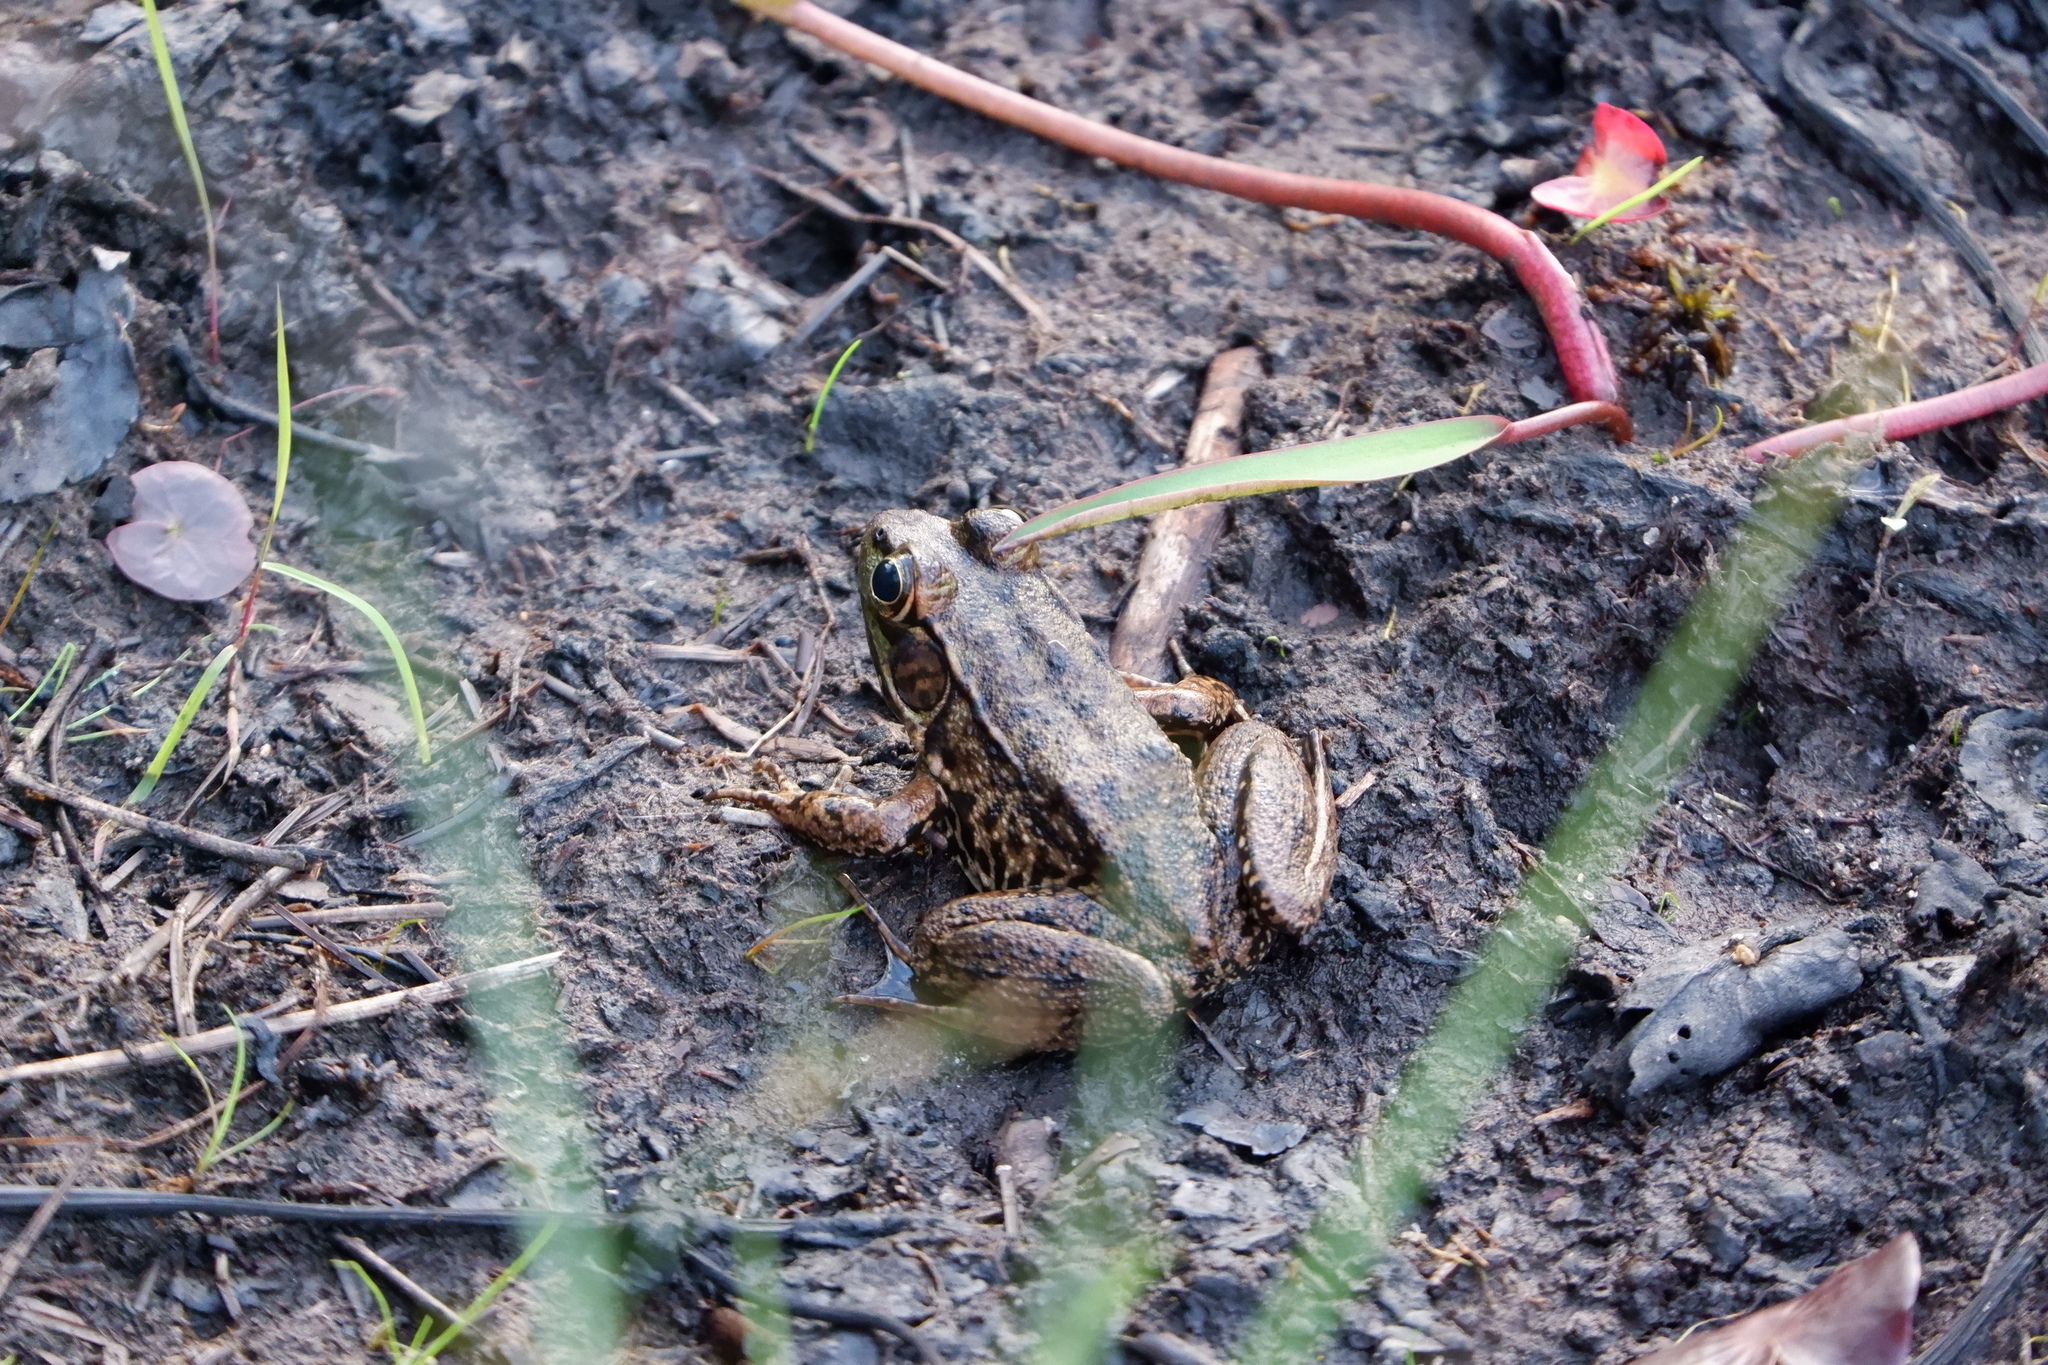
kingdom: Animalia
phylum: Chordata
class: Amphibia
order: Anura
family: Ranidae
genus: Lithobates
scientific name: Lithobates clamitans
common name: Green frog
